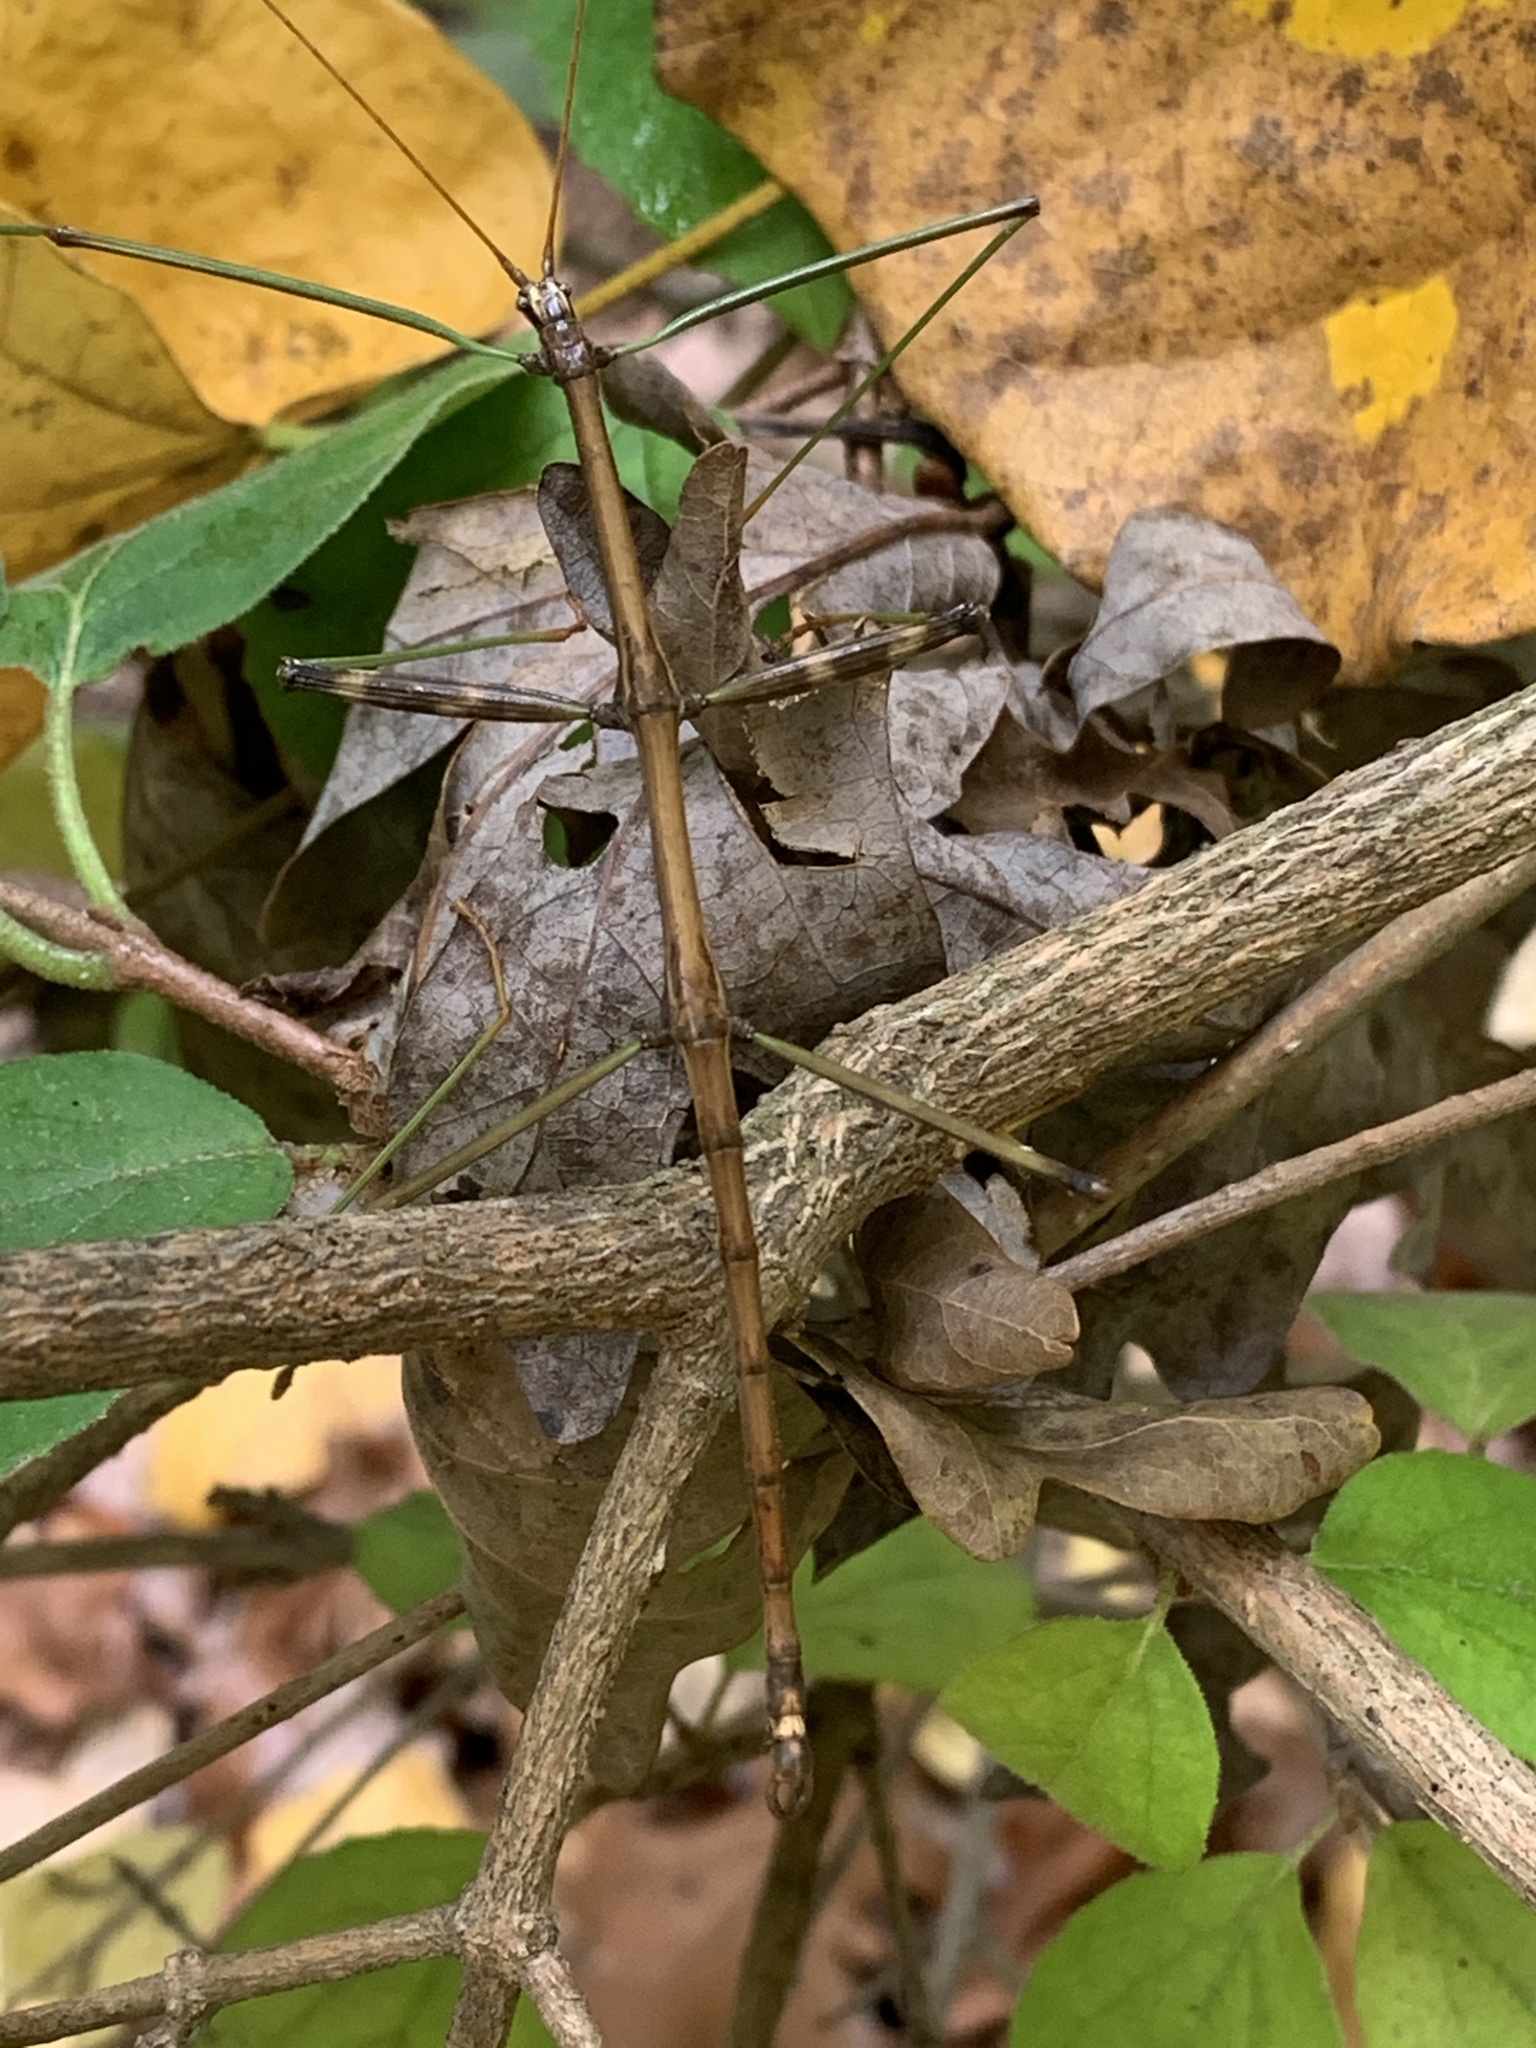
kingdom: Animalia
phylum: Arthropoda
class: Insecta
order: Phasmida
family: Diapheromeridae
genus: Diapheromera
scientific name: Diapheromera femorata
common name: Common american walkingstick
